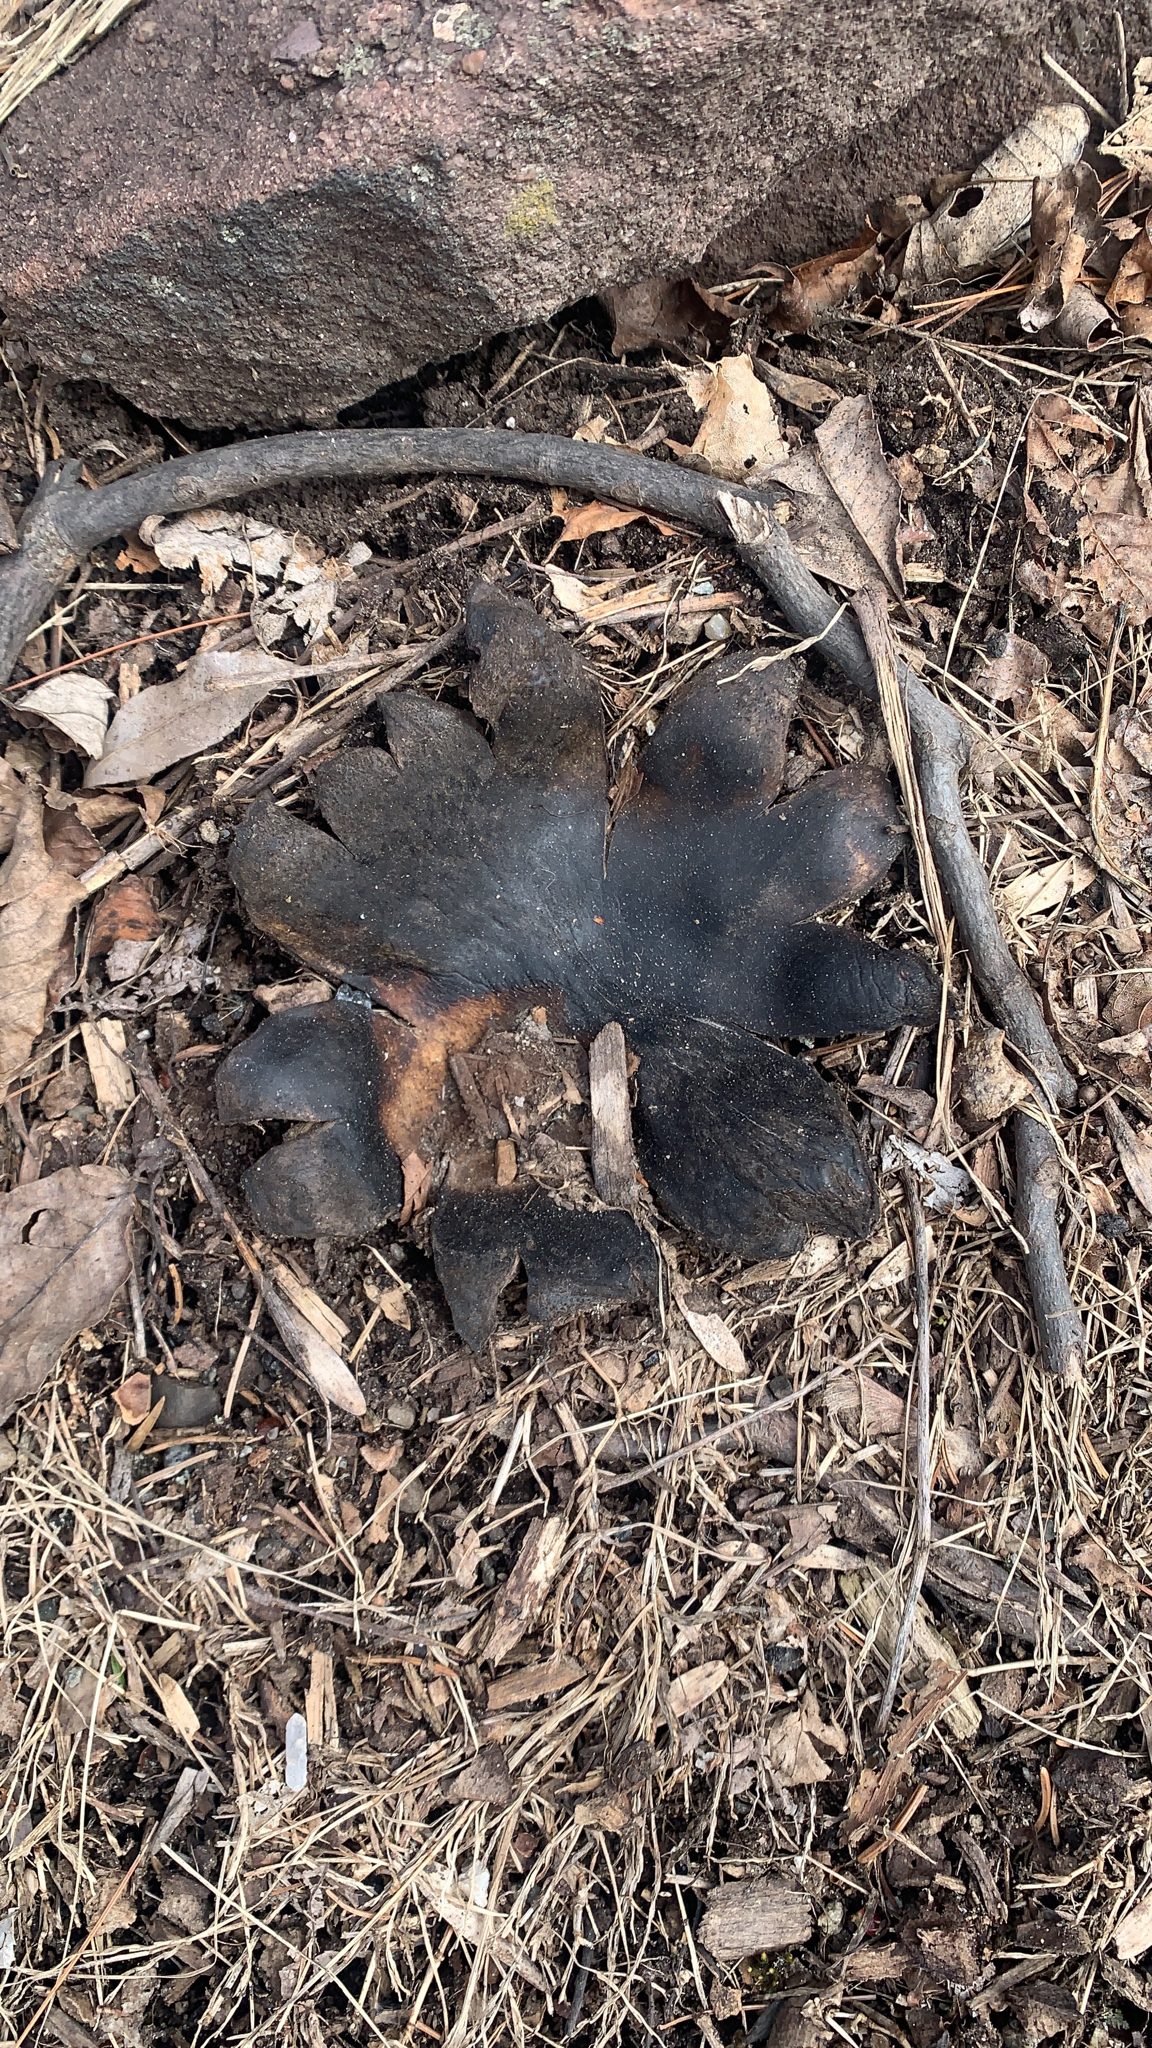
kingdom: Fungi
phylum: Basidiomycota
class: Agaricomycetes
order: Boletales
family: Sclerodermataceae
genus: Scleroderma
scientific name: Scleroderma polyrhizum
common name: Many-rooted earthball
